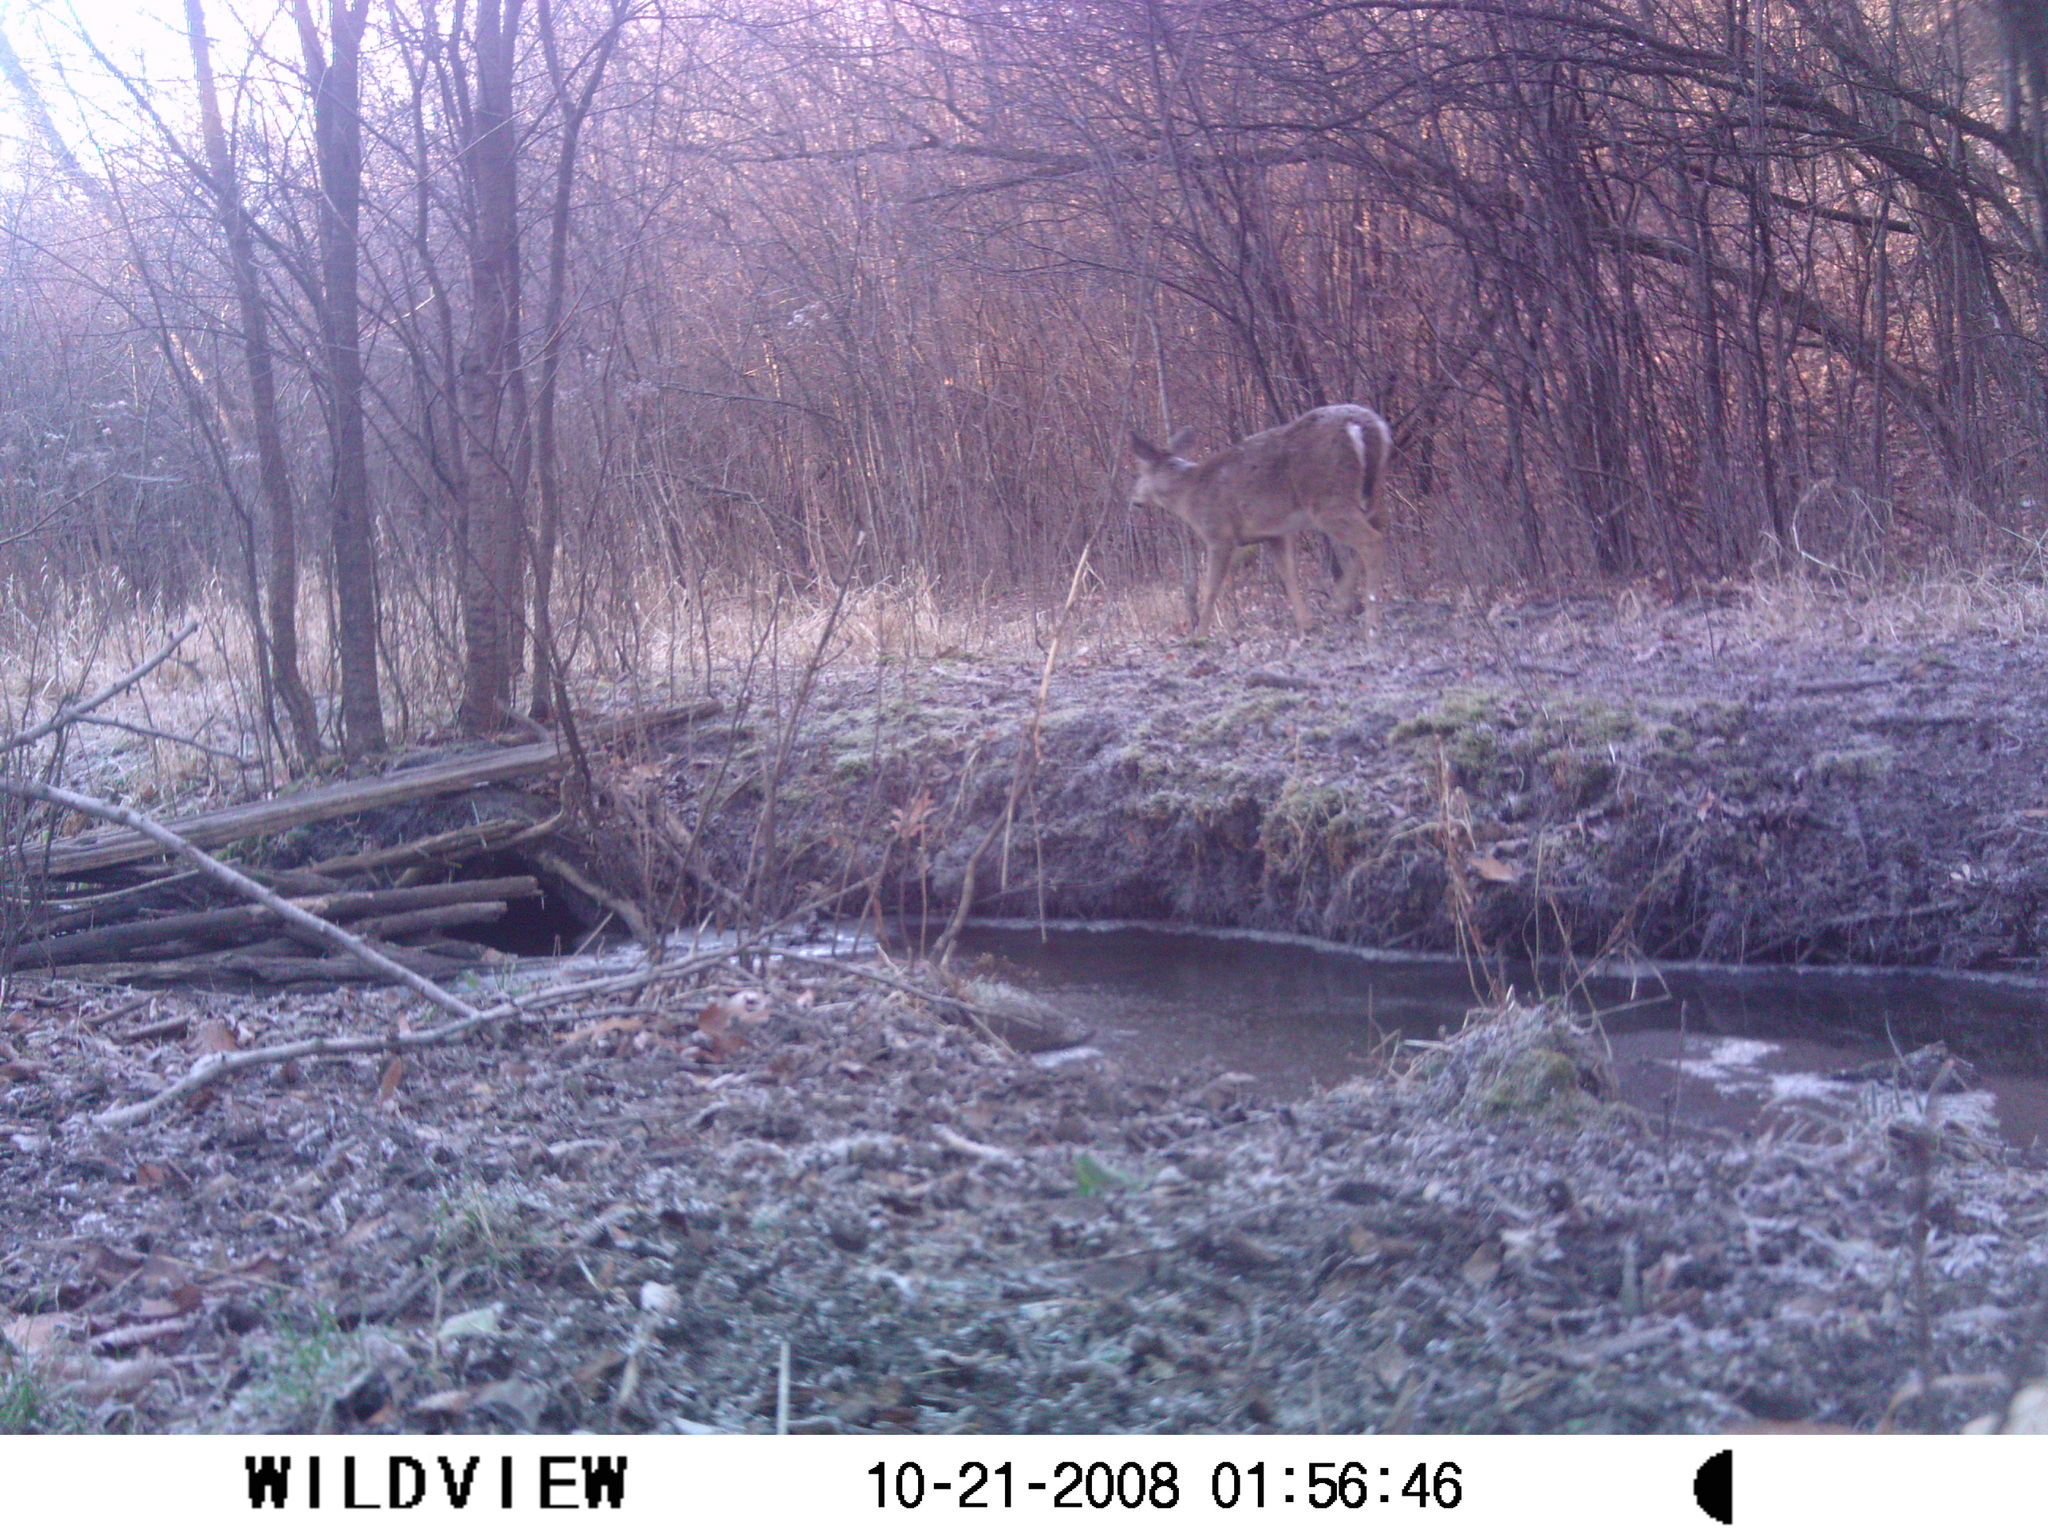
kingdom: Animalia
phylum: Chordata
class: Mammalia
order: Artiodactyla
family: Cervidae
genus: Odocoileus
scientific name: Odocoileus virginianus
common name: White-tailed deer
